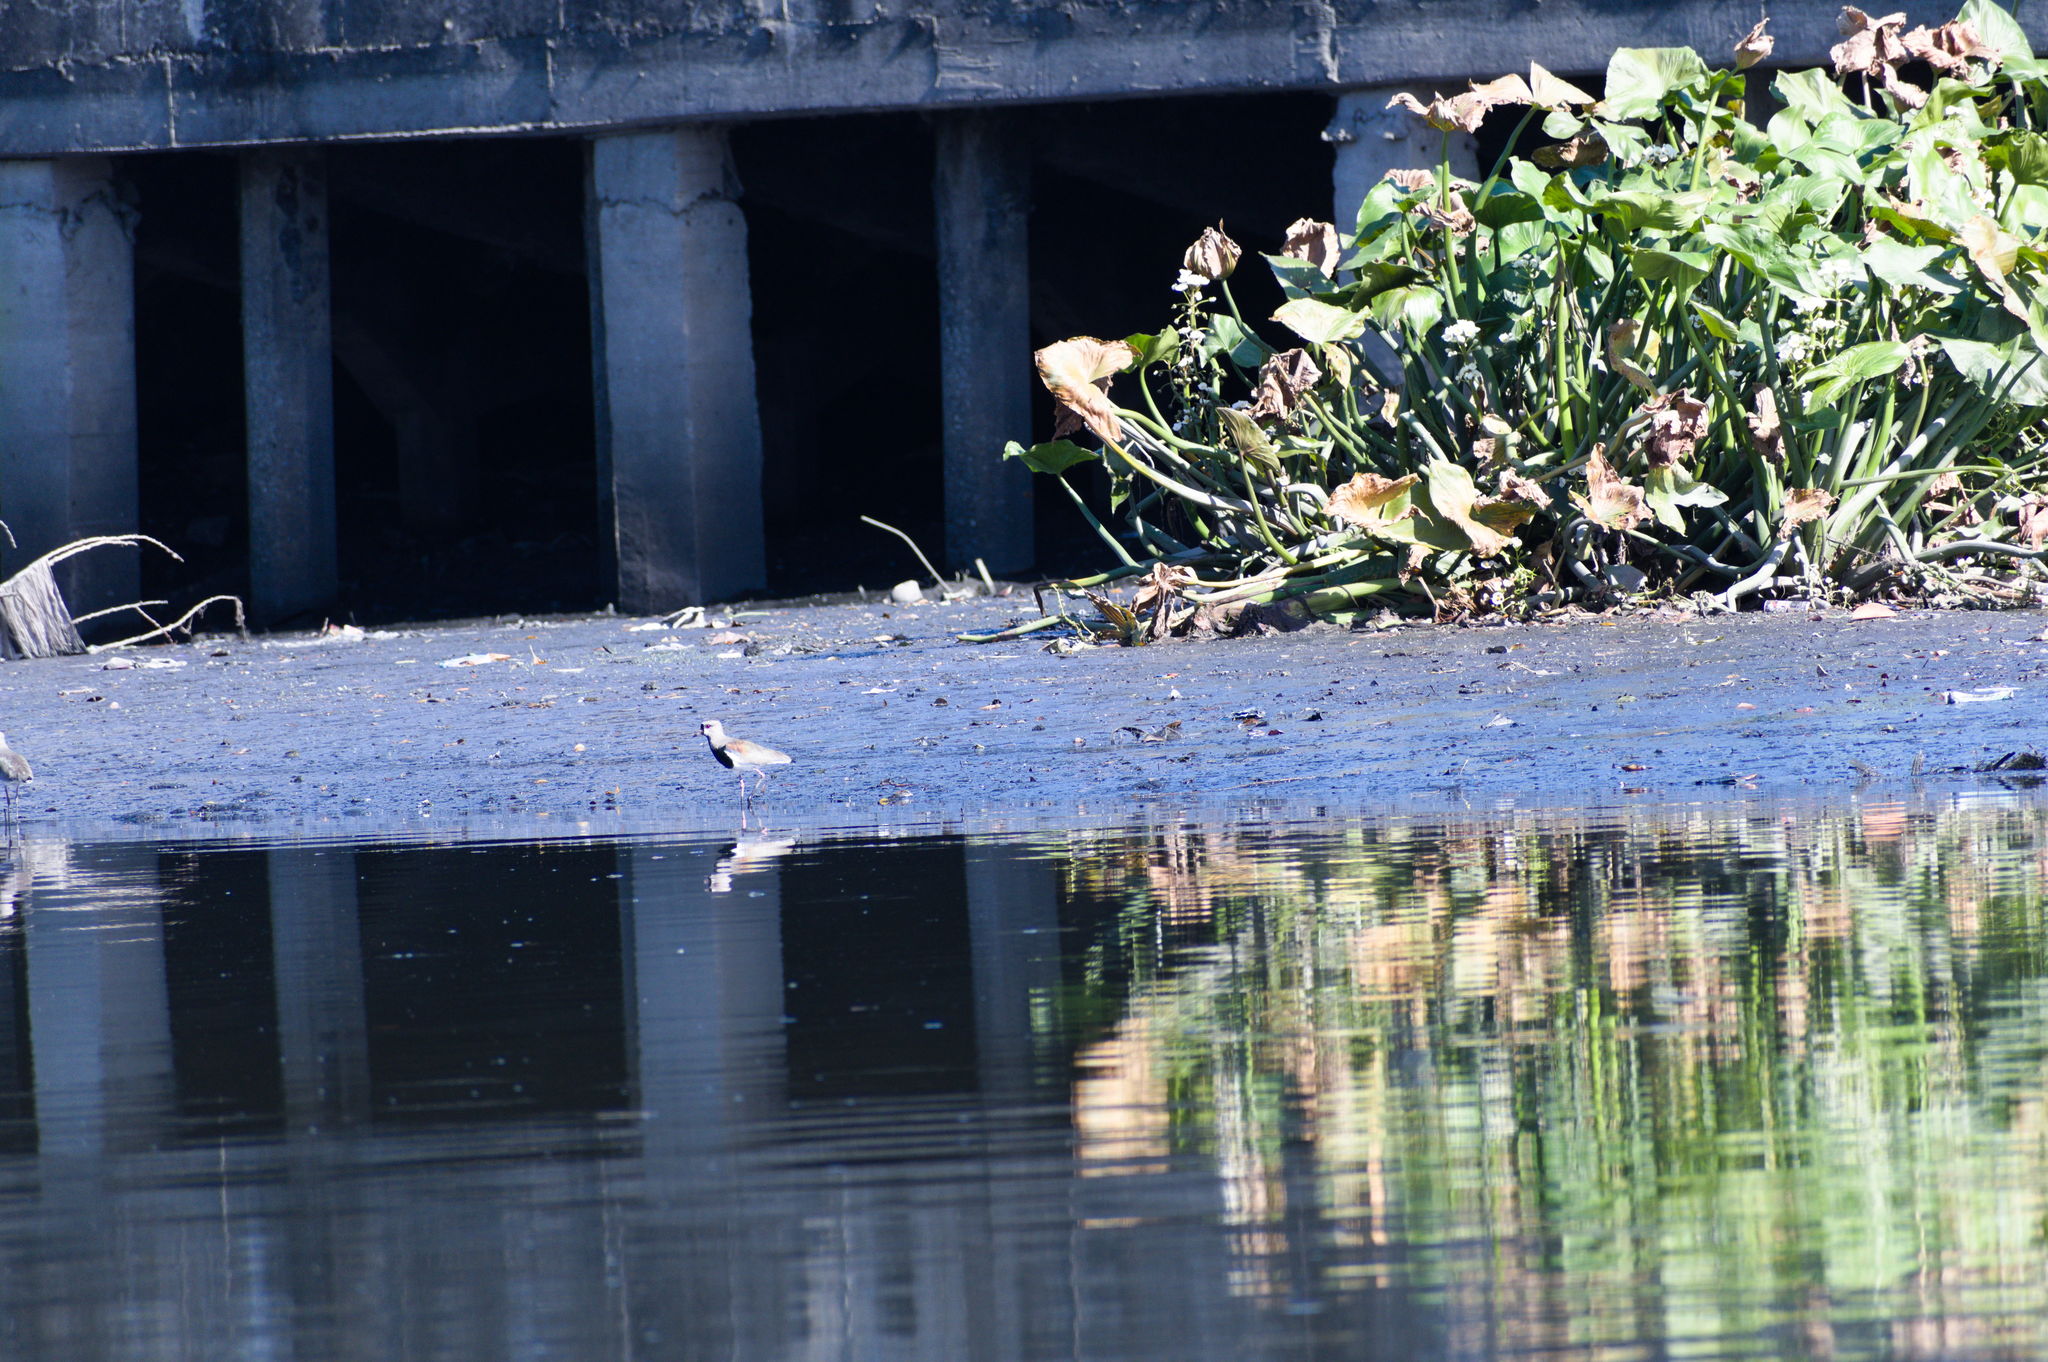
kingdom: Animalia
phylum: Chordata
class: Aves
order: Charadriiformes
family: Charadriidae
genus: Vanellus
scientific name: Vanellus chilensis
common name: Southern lapwing
